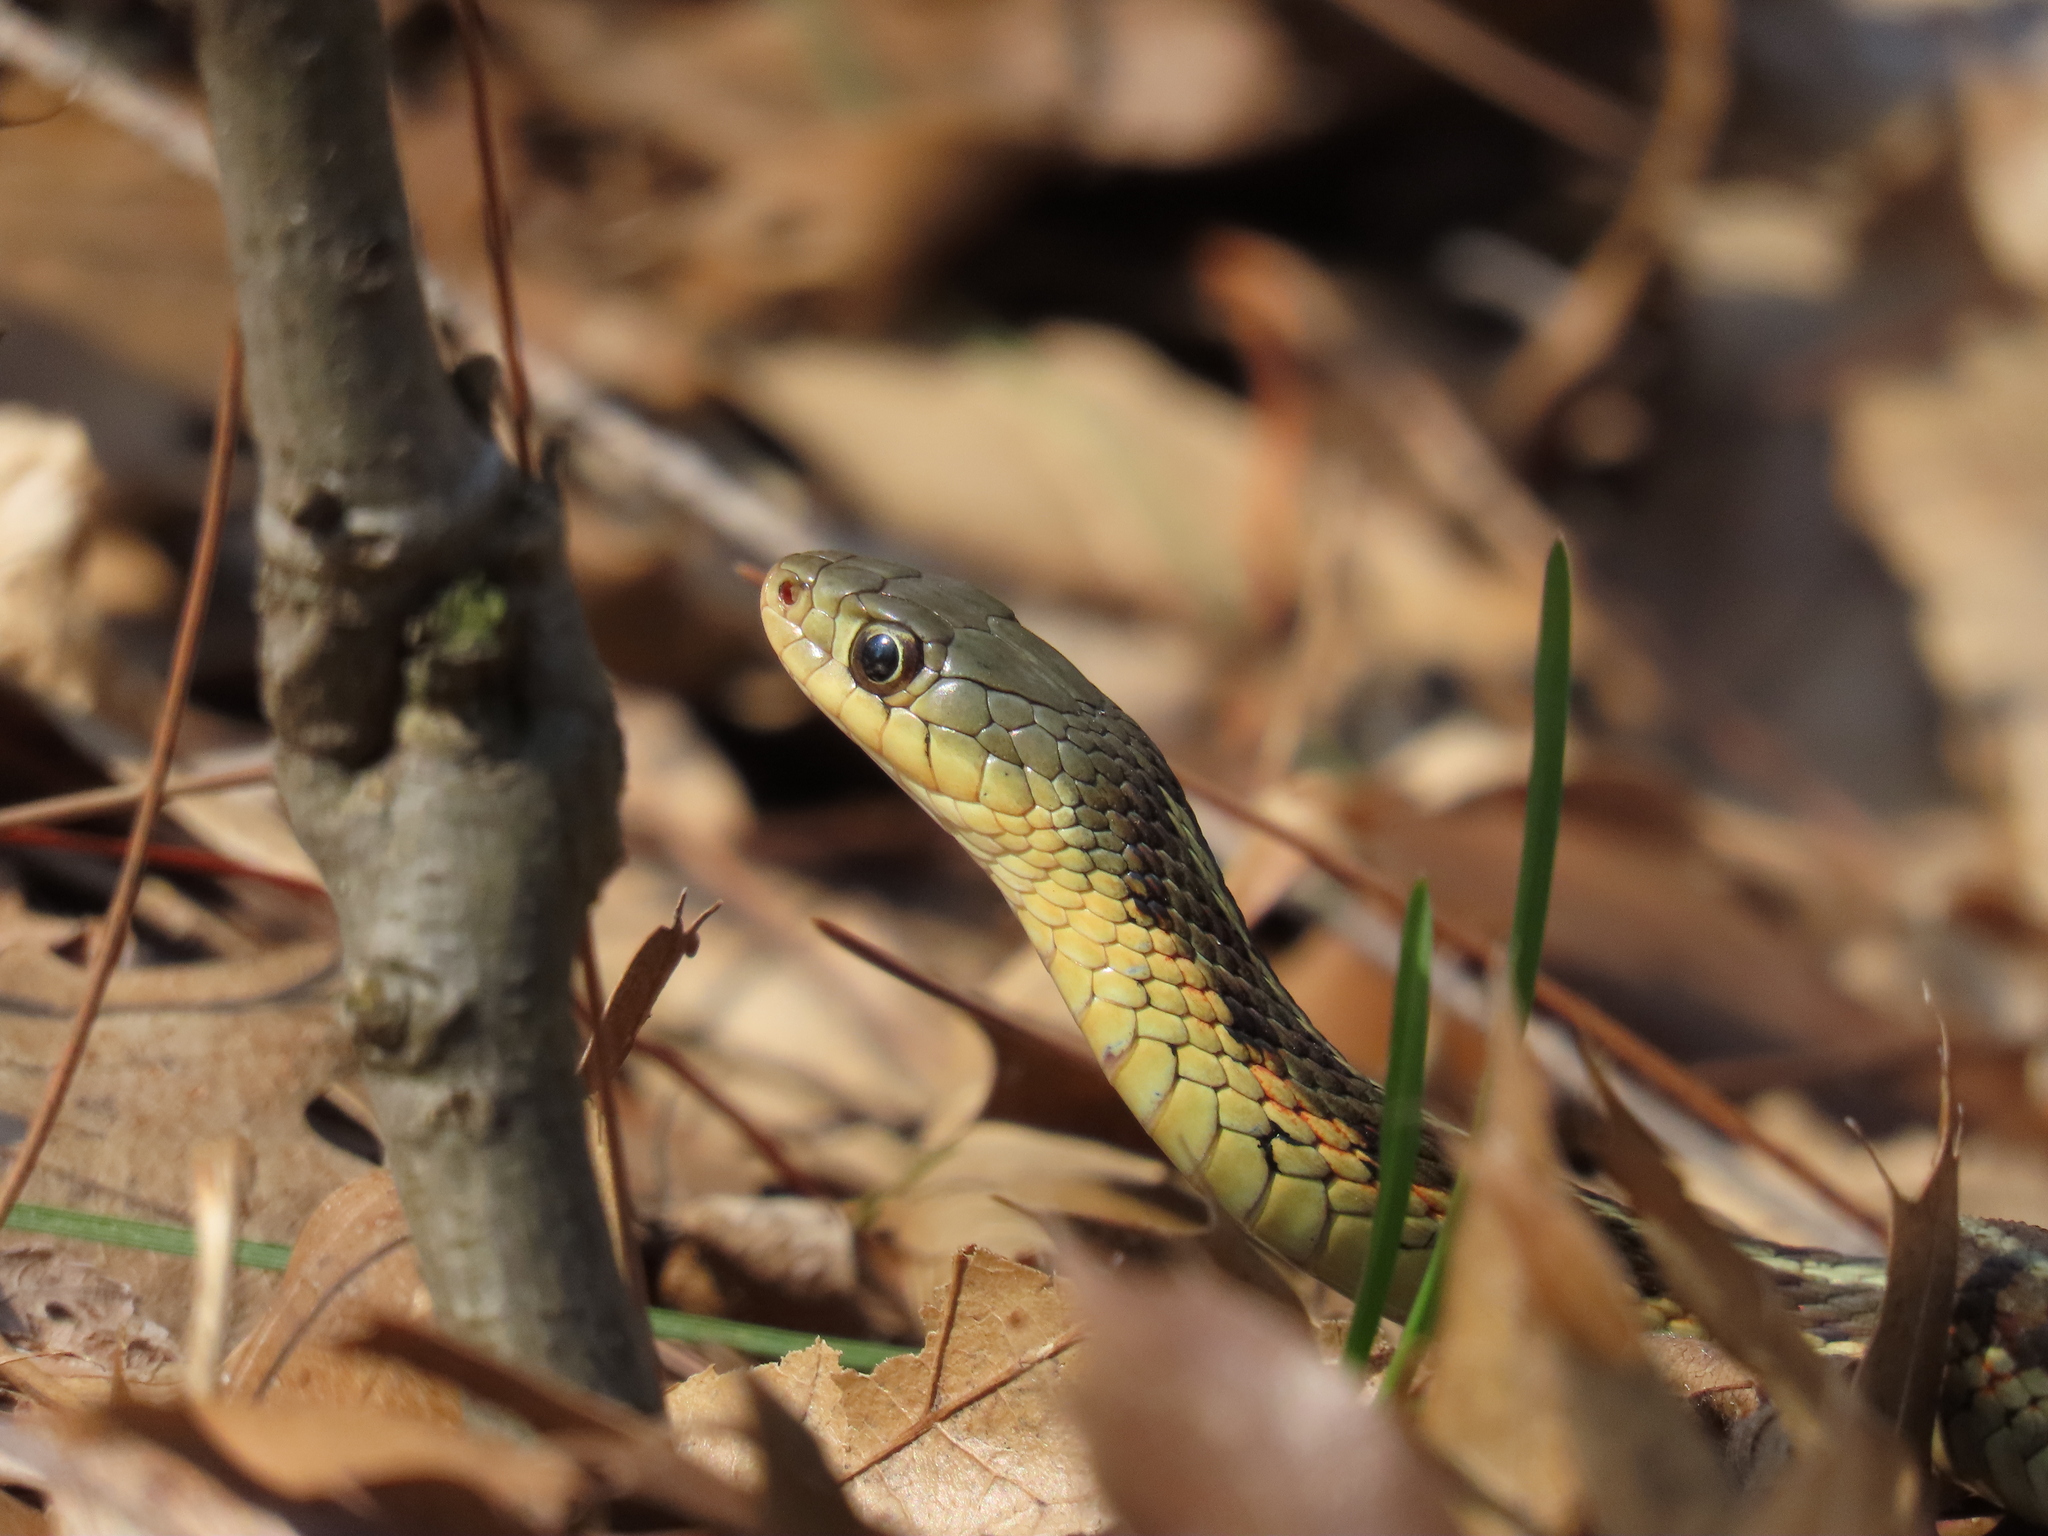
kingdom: Animalia
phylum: Chordata
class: Squamata
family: Colubridae
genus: Thamnophis
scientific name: Thamnophis sirtalis
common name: Common garter snake
